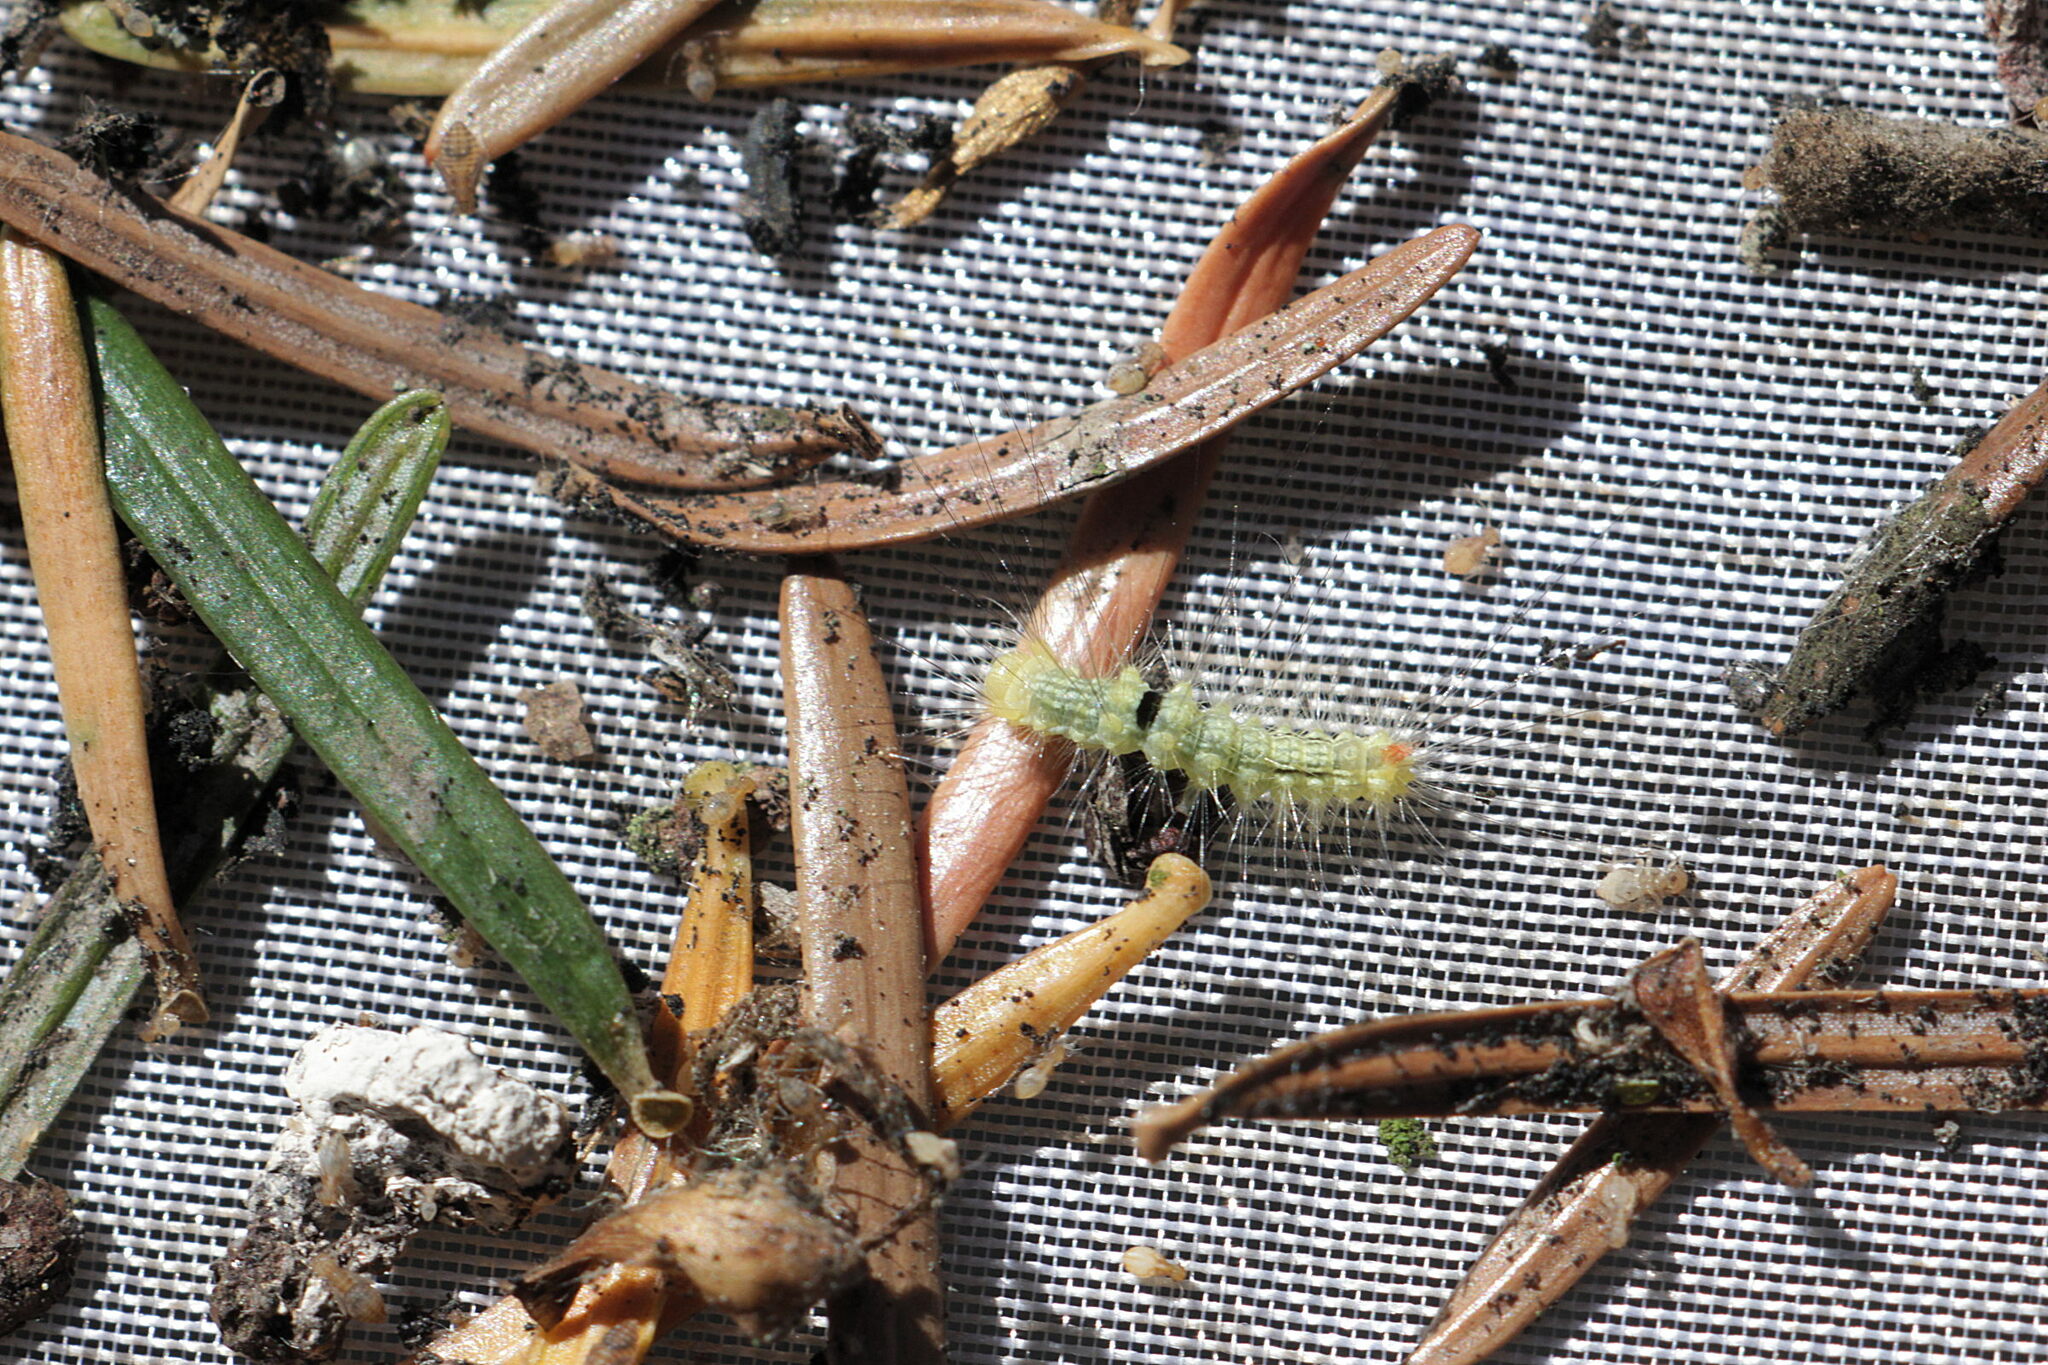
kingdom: Animalia
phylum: Arthropoda
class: Insecta
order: Lepidoptera
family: Erebidae
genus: Calliteara
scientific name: Calliteara pudibunda
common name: Pale tussock
